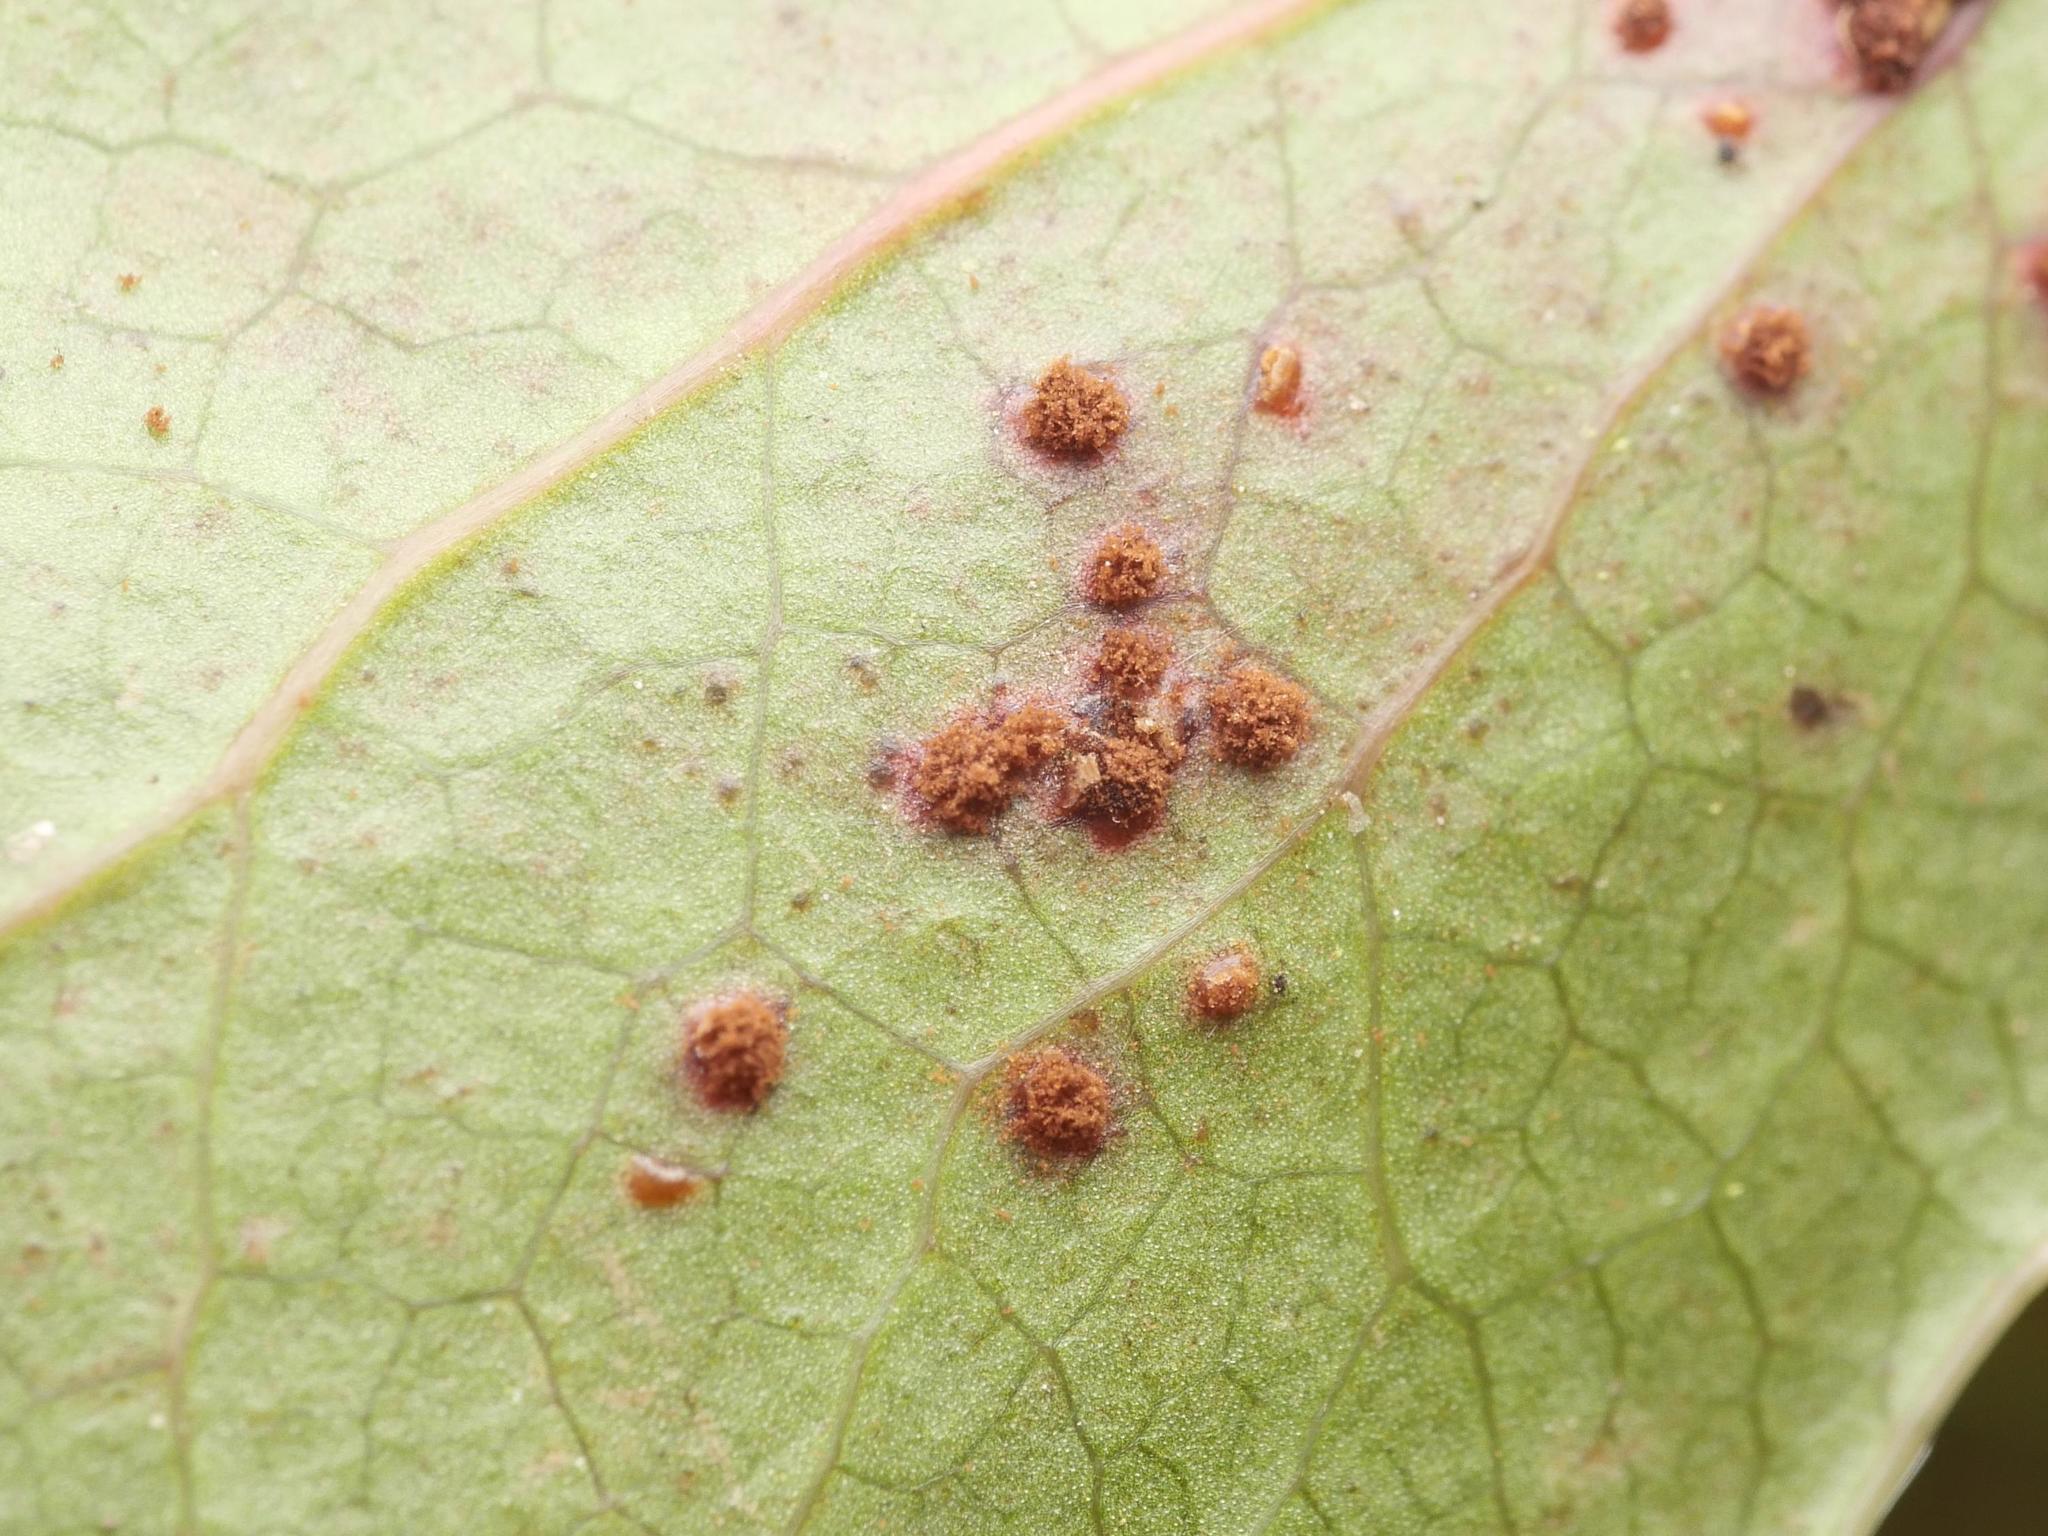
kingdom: Fungi
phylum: Basidiomycota
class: Pucciniomycetes
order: Pucciniales
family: Pucciniaceae
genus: Cumminsiella
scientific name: Cumminsiella mirabilissima
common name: Mahonia rust
